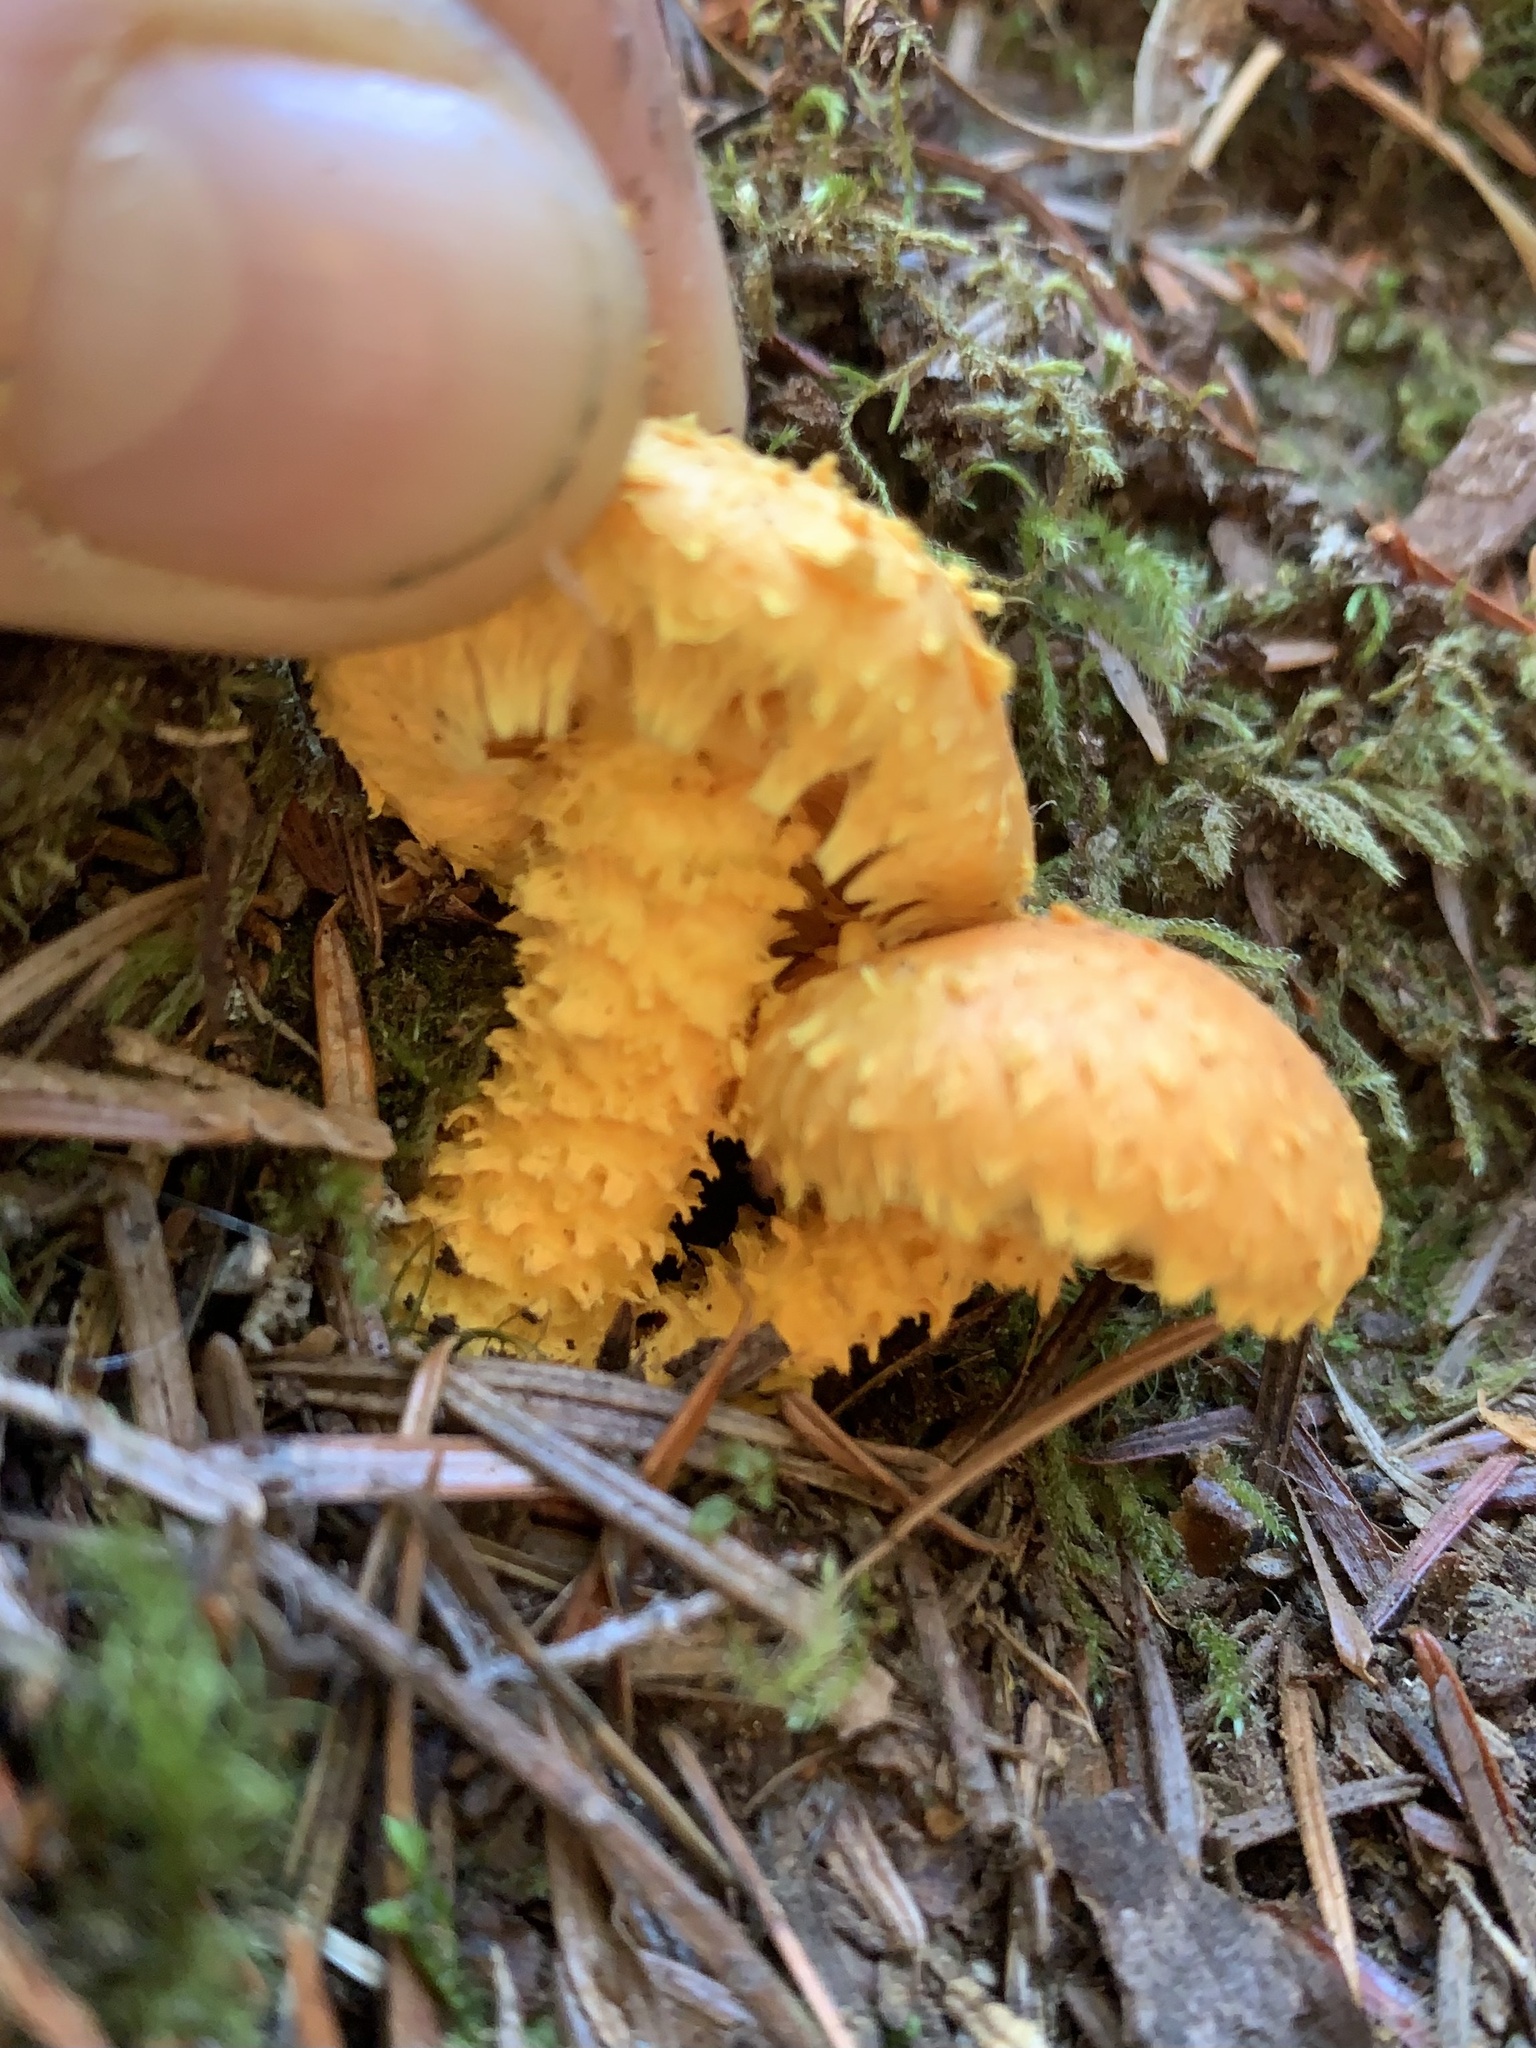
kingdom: Fungi
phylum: Basidiomycota
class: Agaricomycetes
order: Agaricales
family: Strophariaceae
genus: Pholiota
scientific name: Pholiota flammans
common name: Flaming scalycap
